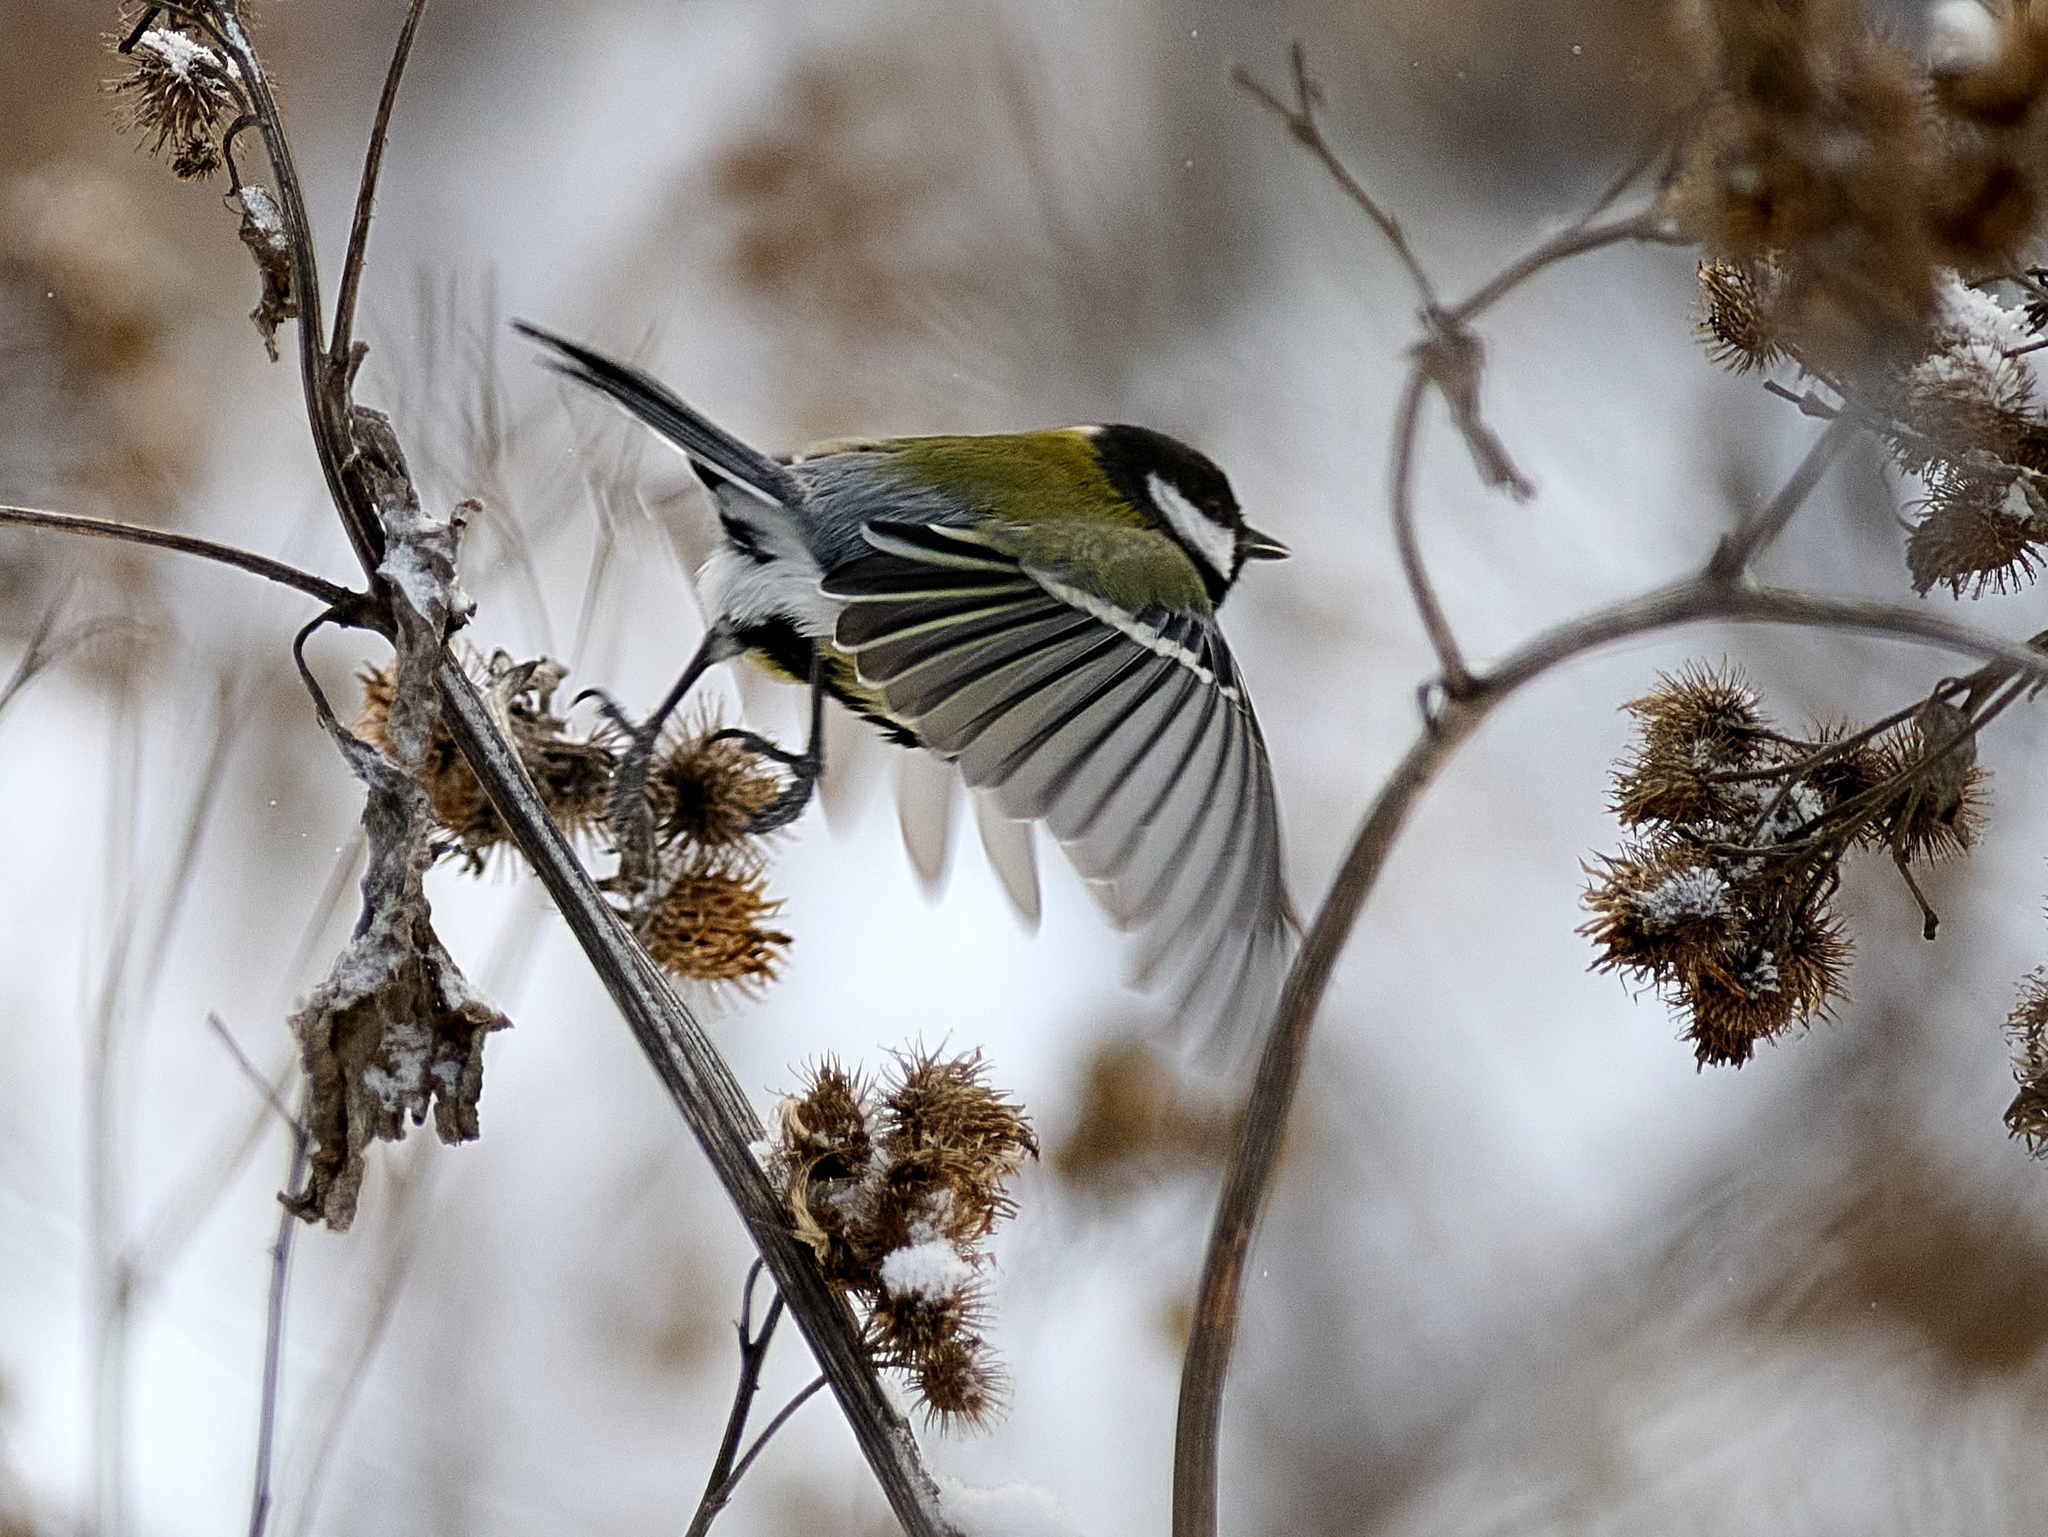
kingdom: Animalia
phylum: Chordata
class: Aves
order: Passeriformes
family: Paridae
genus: Parus
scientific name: Parus major
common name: Great tit
